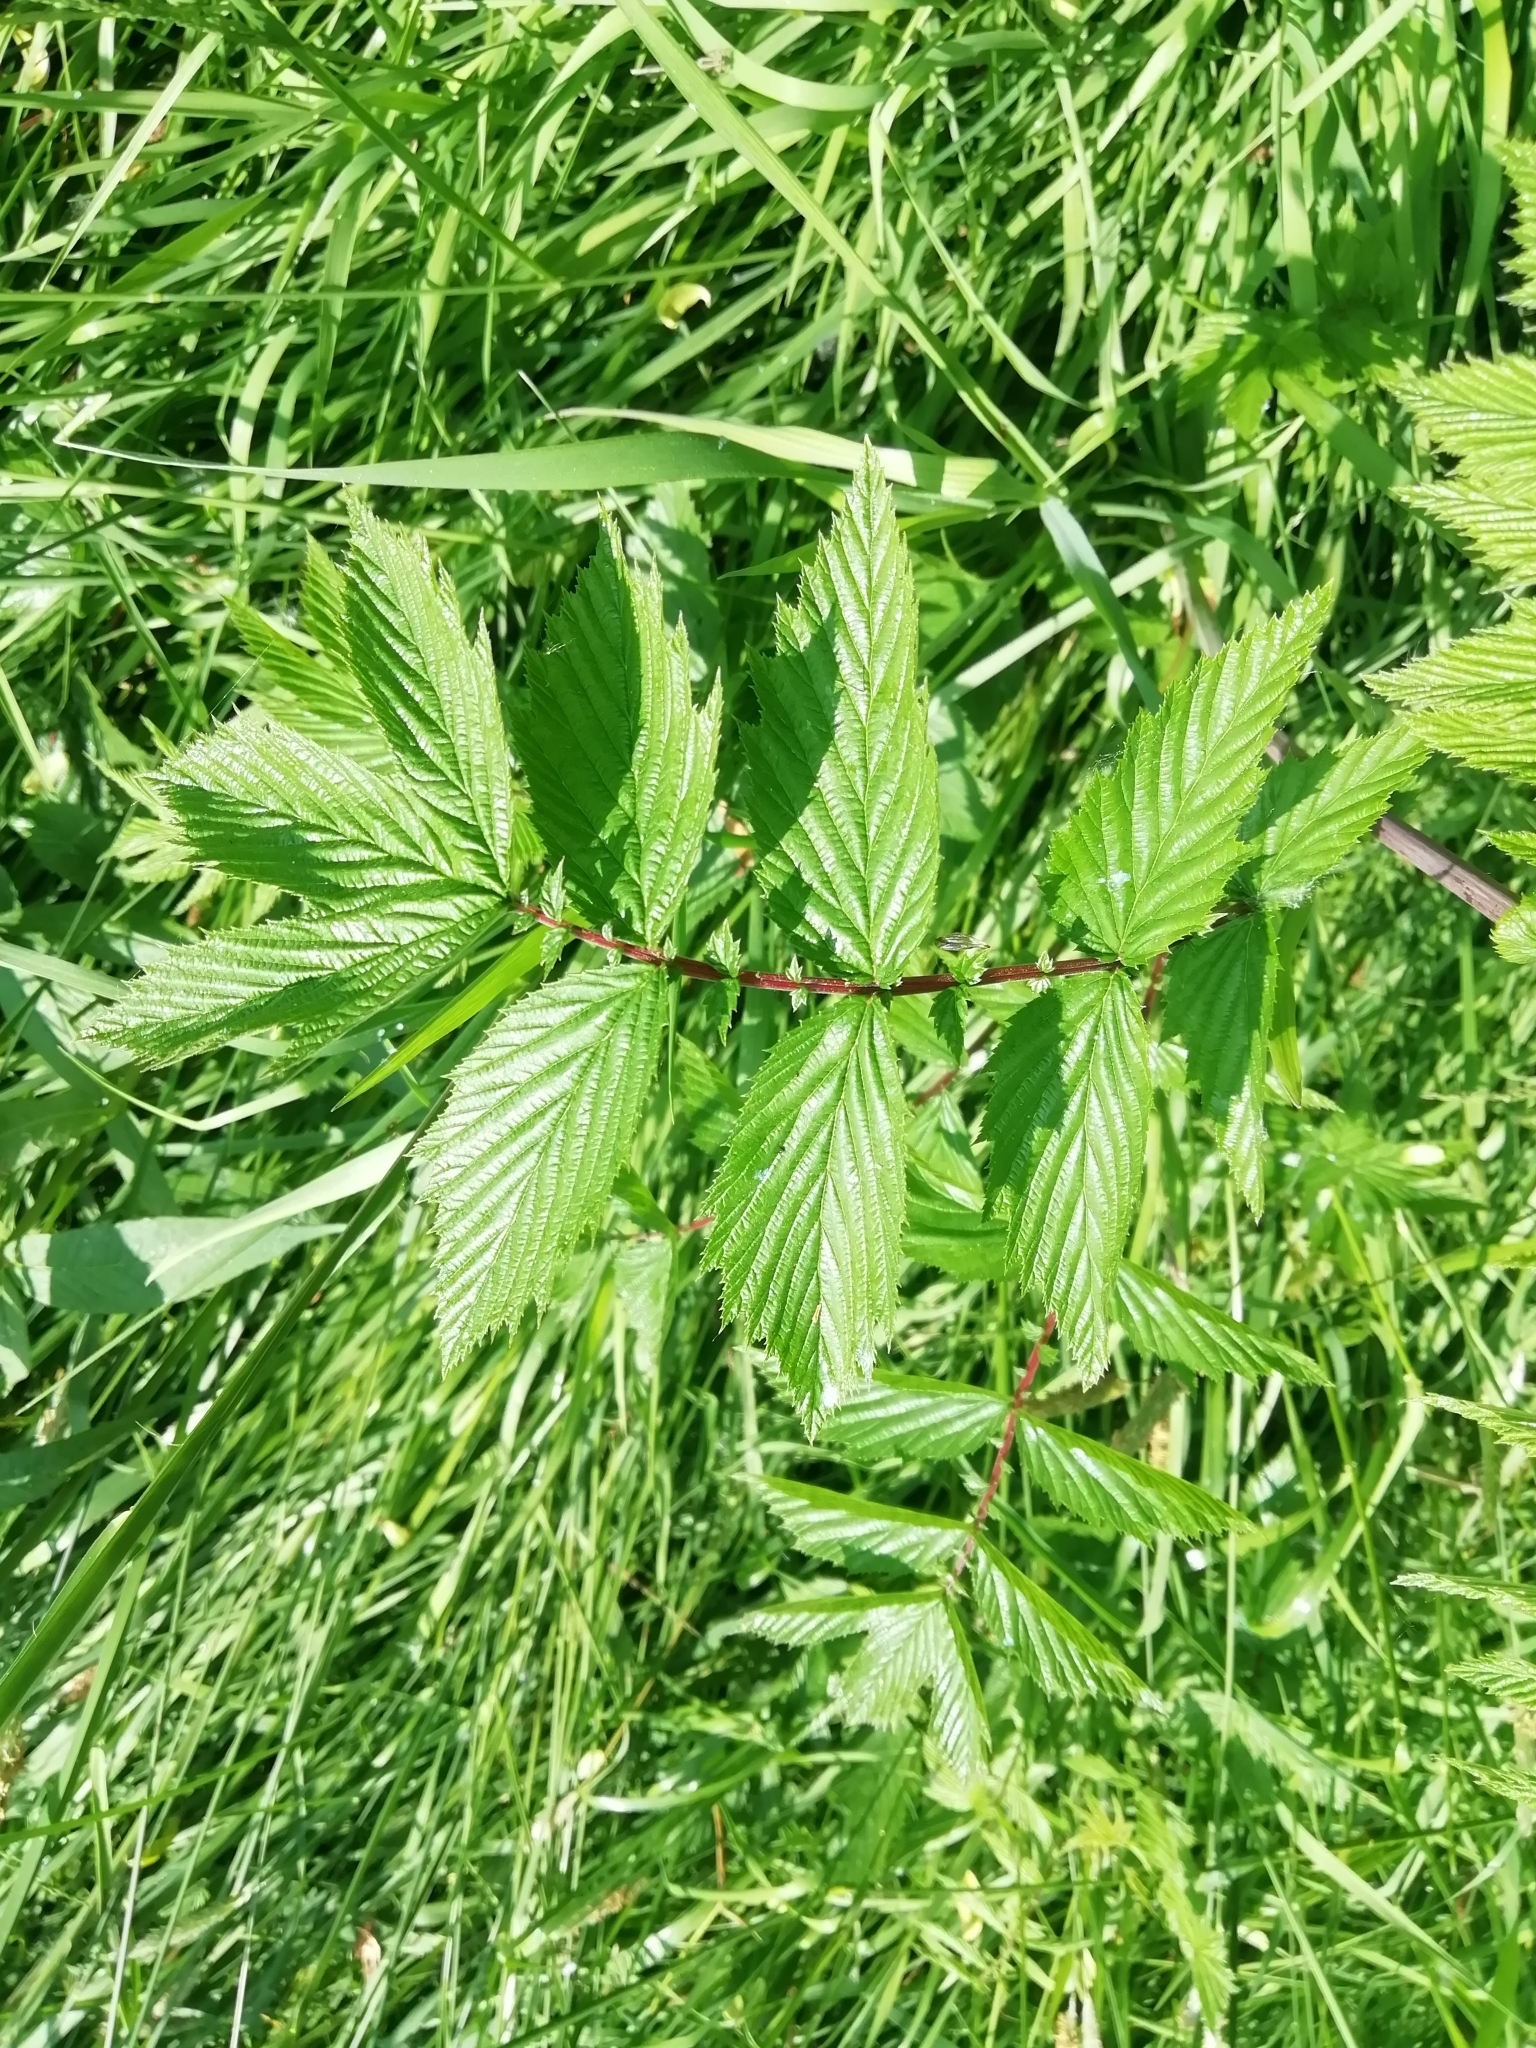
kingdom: Plantae
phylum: Tracheophyta
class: Magnoliopsida
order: Rosales
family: Rosaceae
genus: Filipendula
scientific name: Filipendula ulmaria
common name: Meadowsweet
